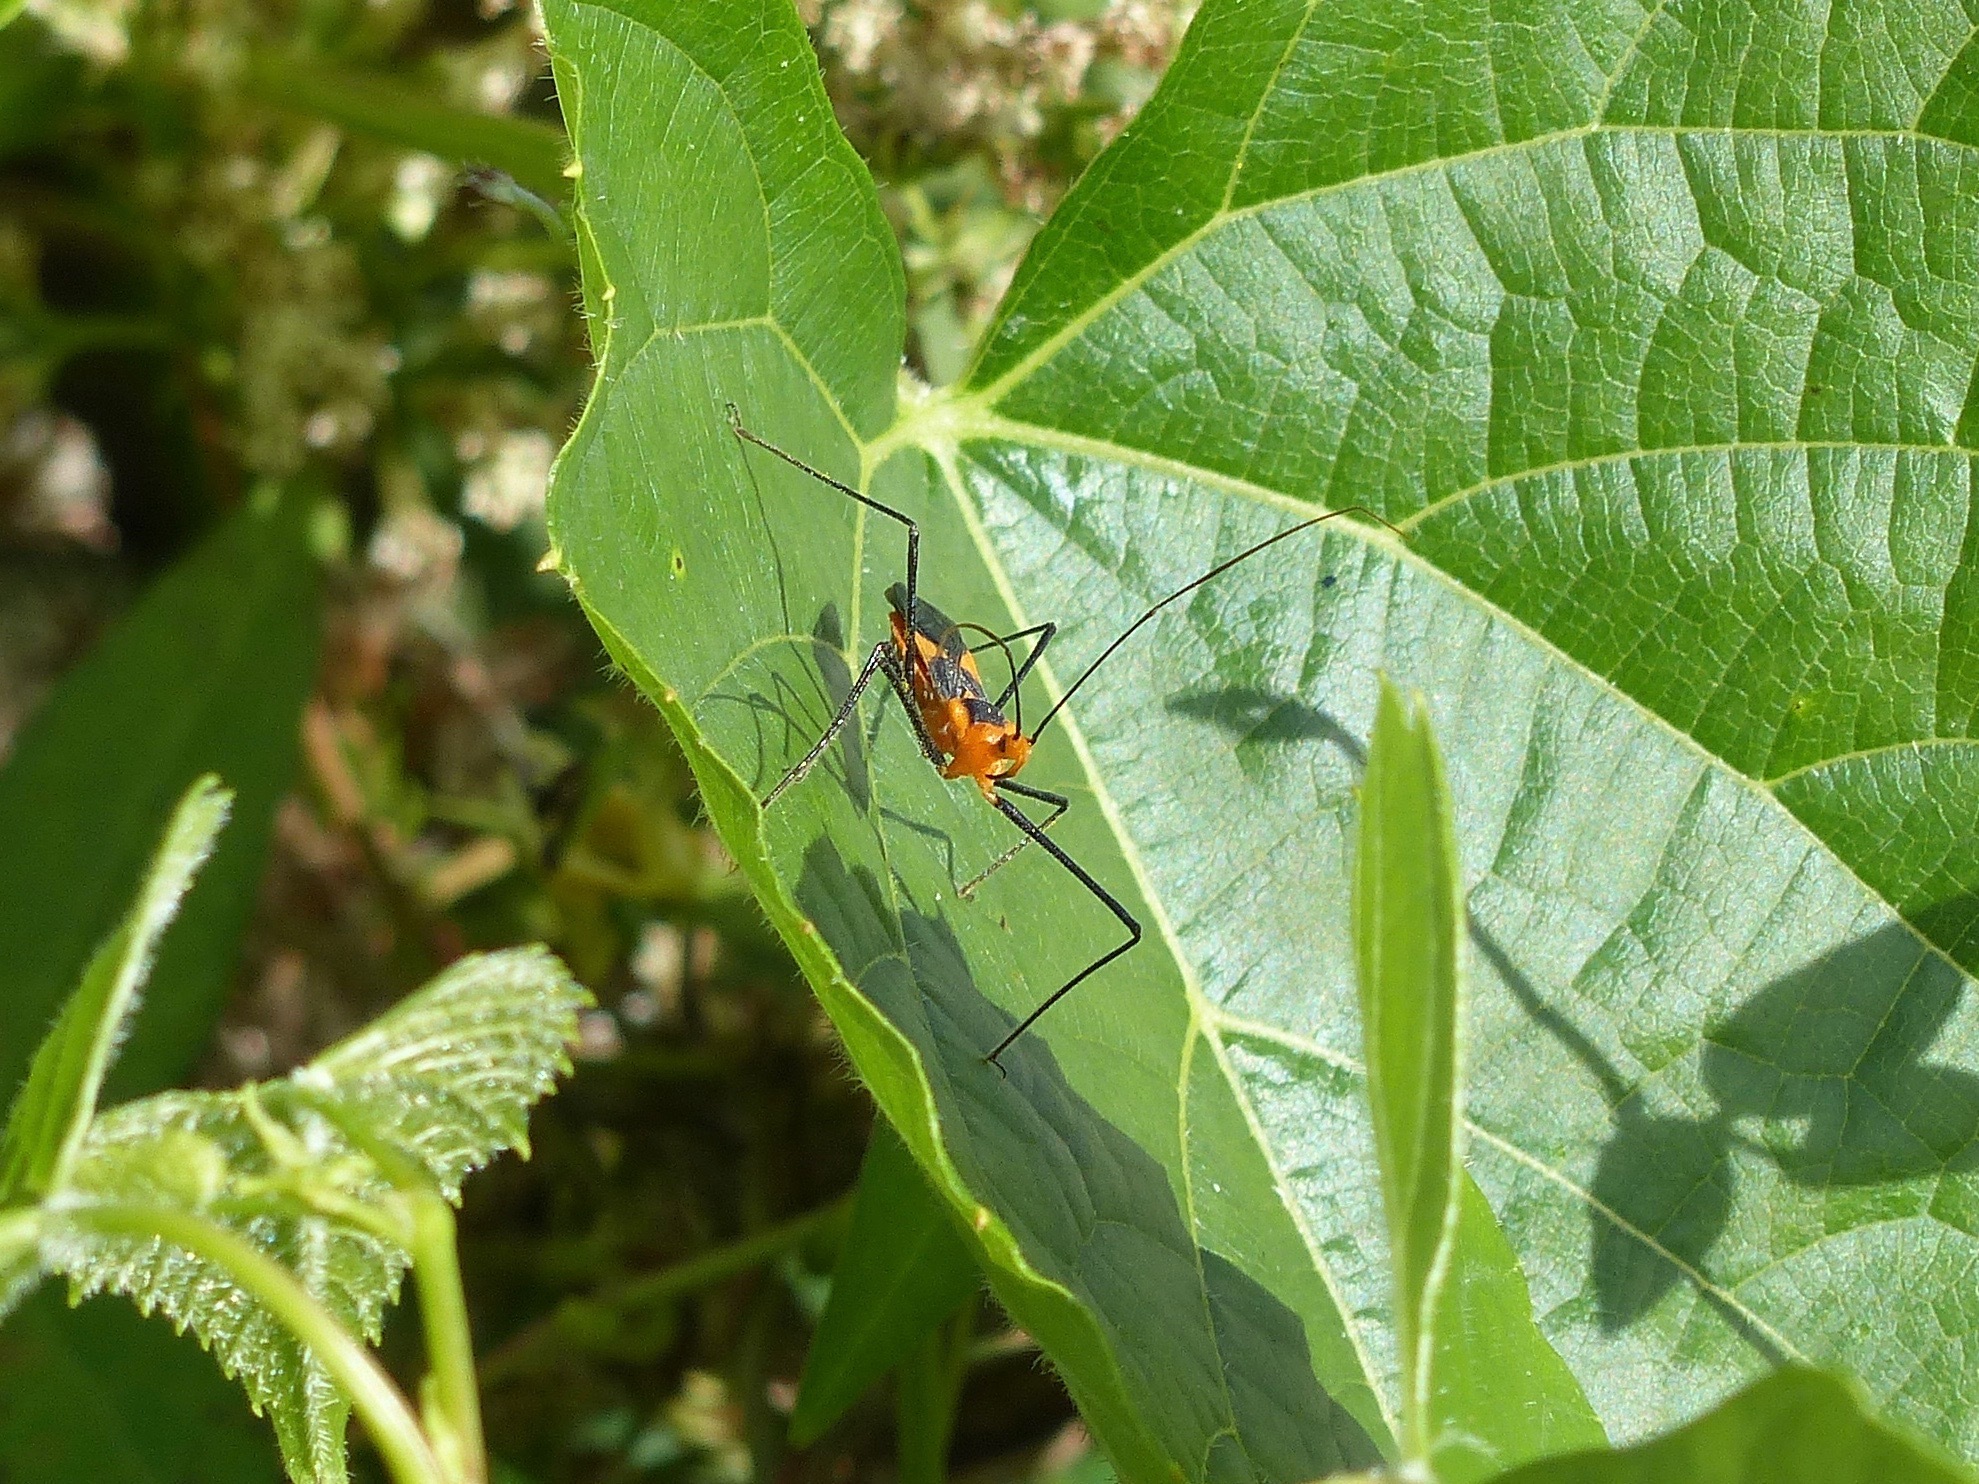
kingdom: Animalia
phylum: Arthropoda
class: Insecta
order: Hemiptera
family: Reduviidae
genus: Zelus
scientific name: Zelus longipes
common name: Milkweed assassin bug
